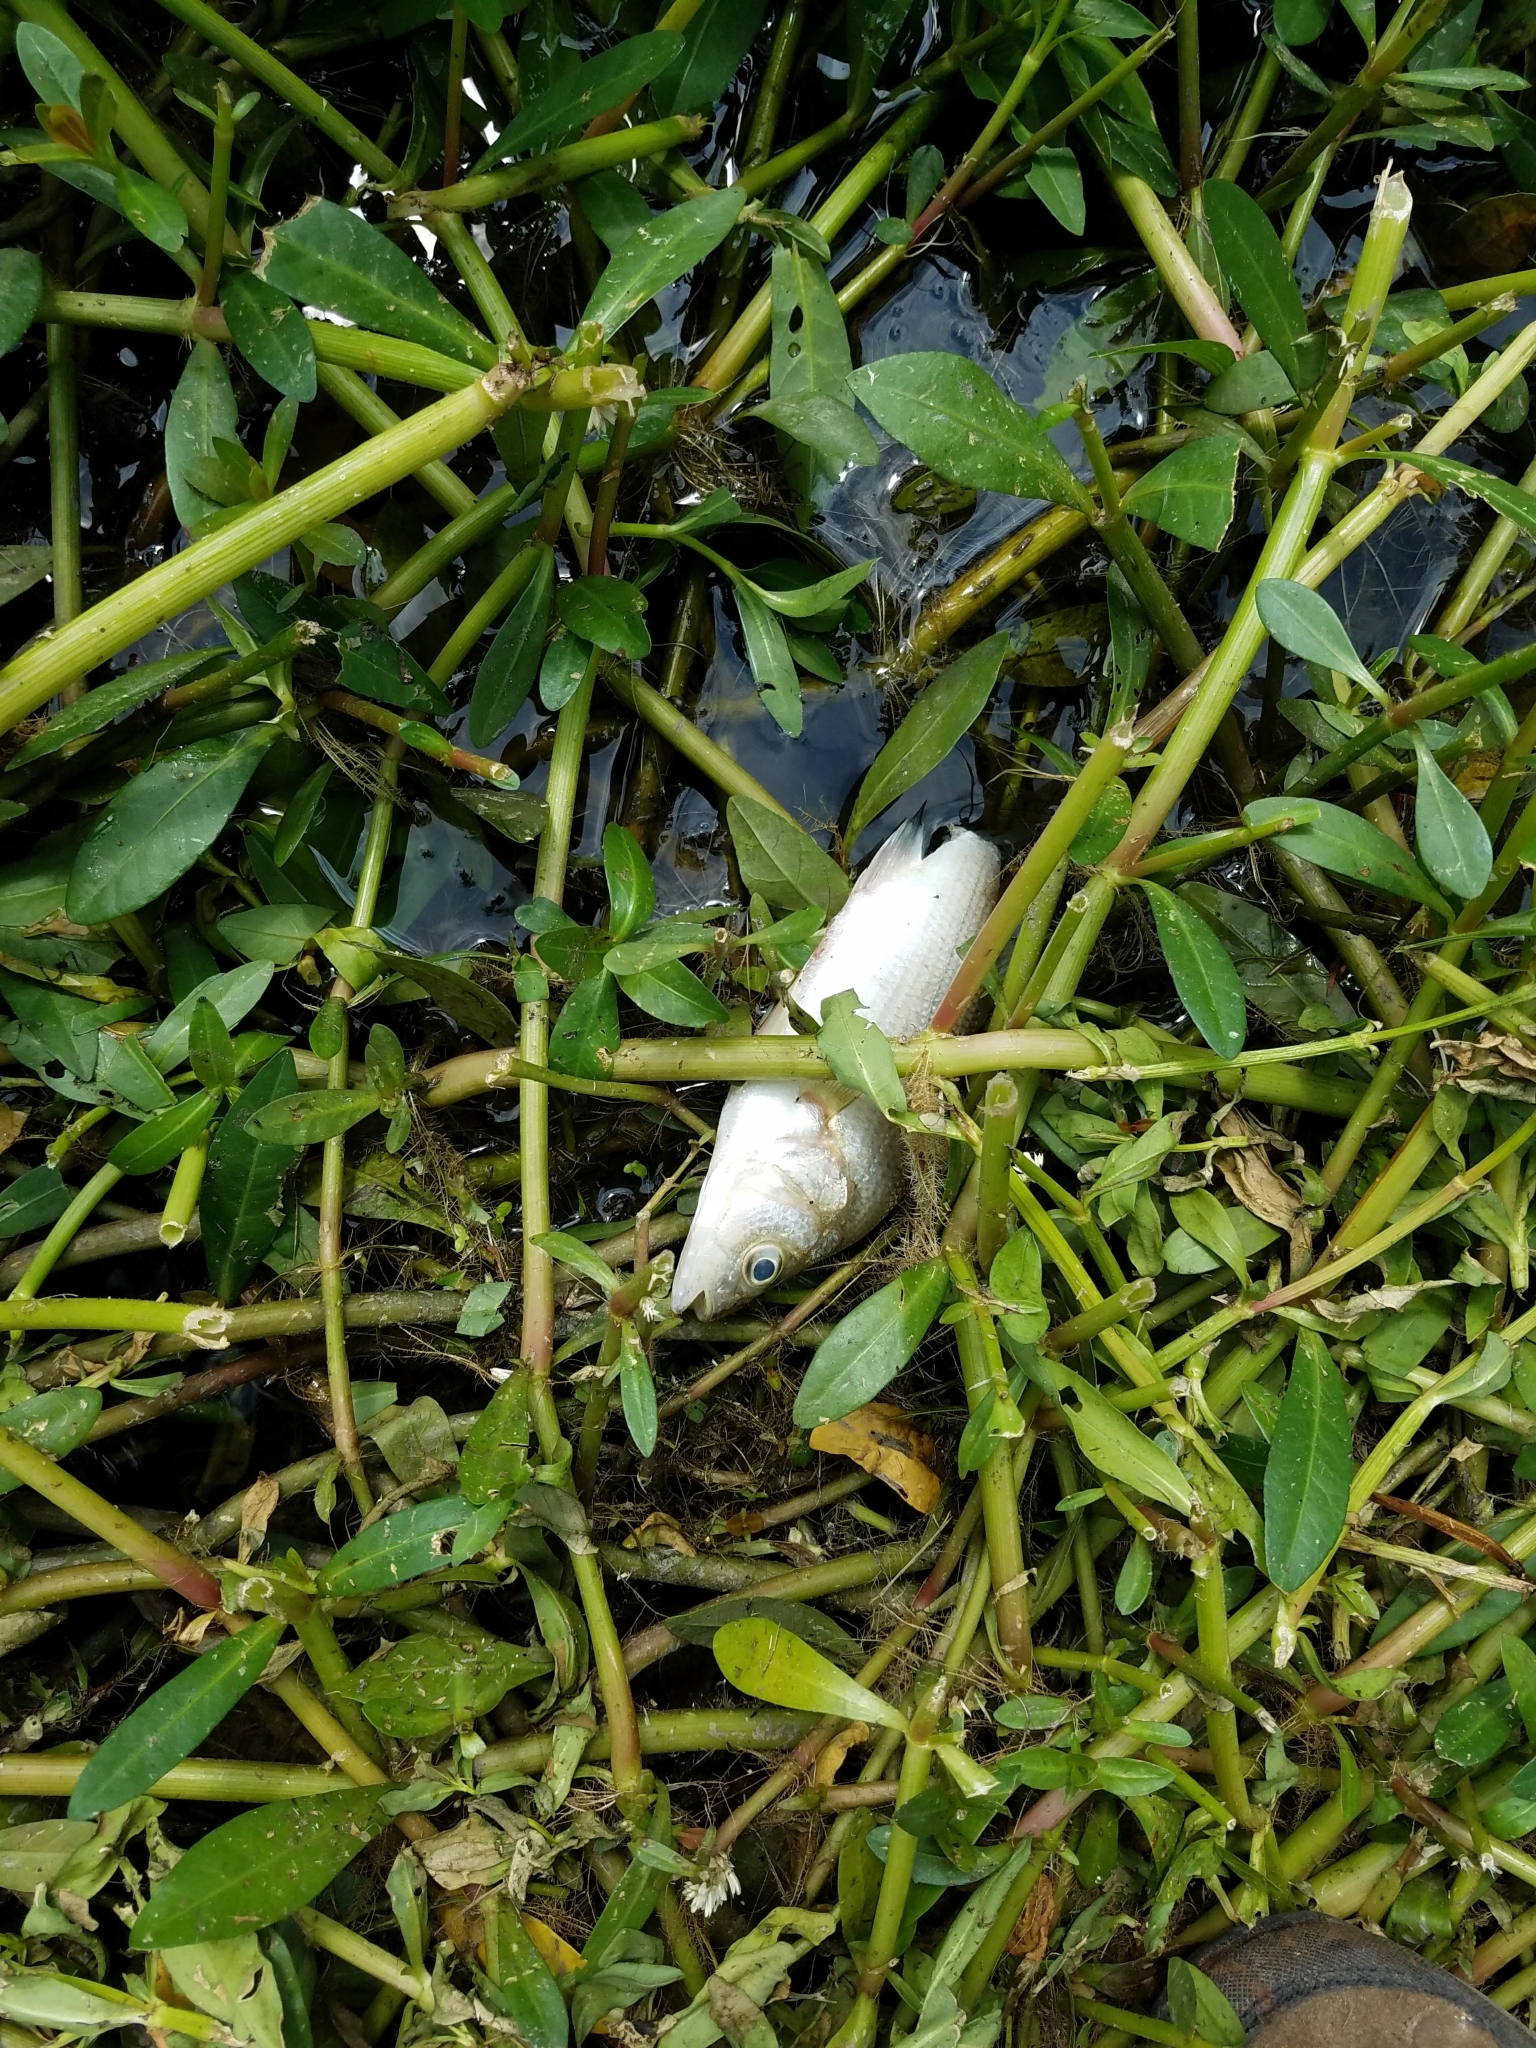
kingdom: Animalia
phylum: Chordata
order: Perciformes
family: Moronidae
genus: Morone
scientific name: Morone americana
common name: White perch
